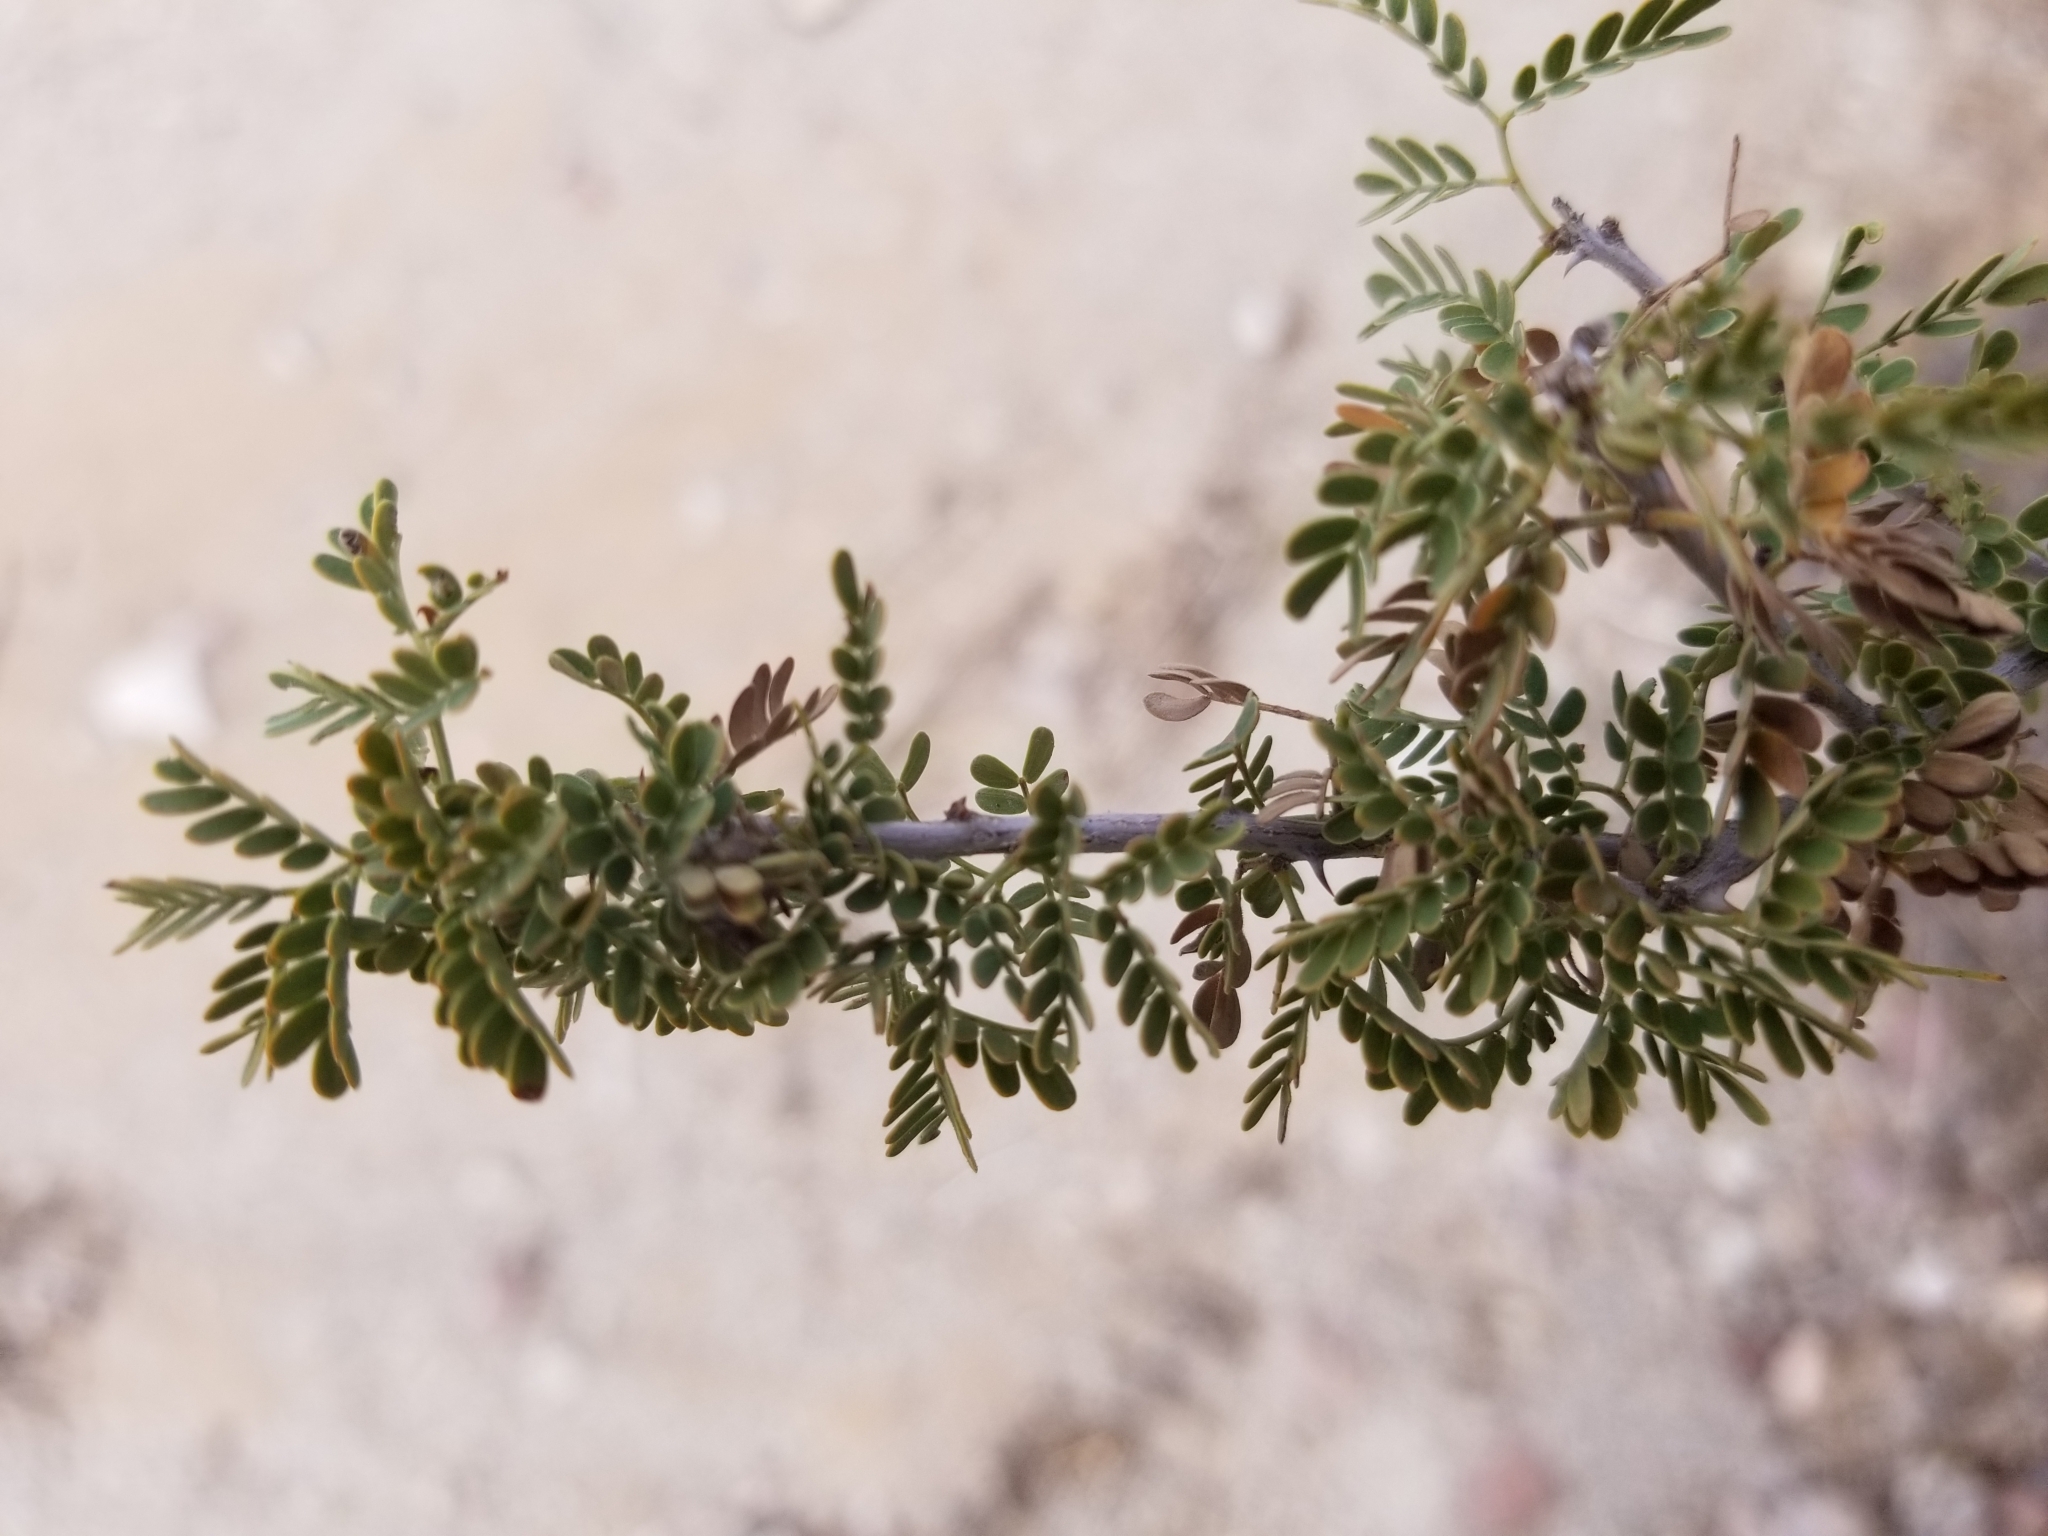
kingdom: Plantae
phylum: Tracheophyta
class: Magnoliopsida
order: Fabales
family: Fabaceae
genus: Senegalia
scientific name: Senegalia greggii
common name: Texas-mimosa
